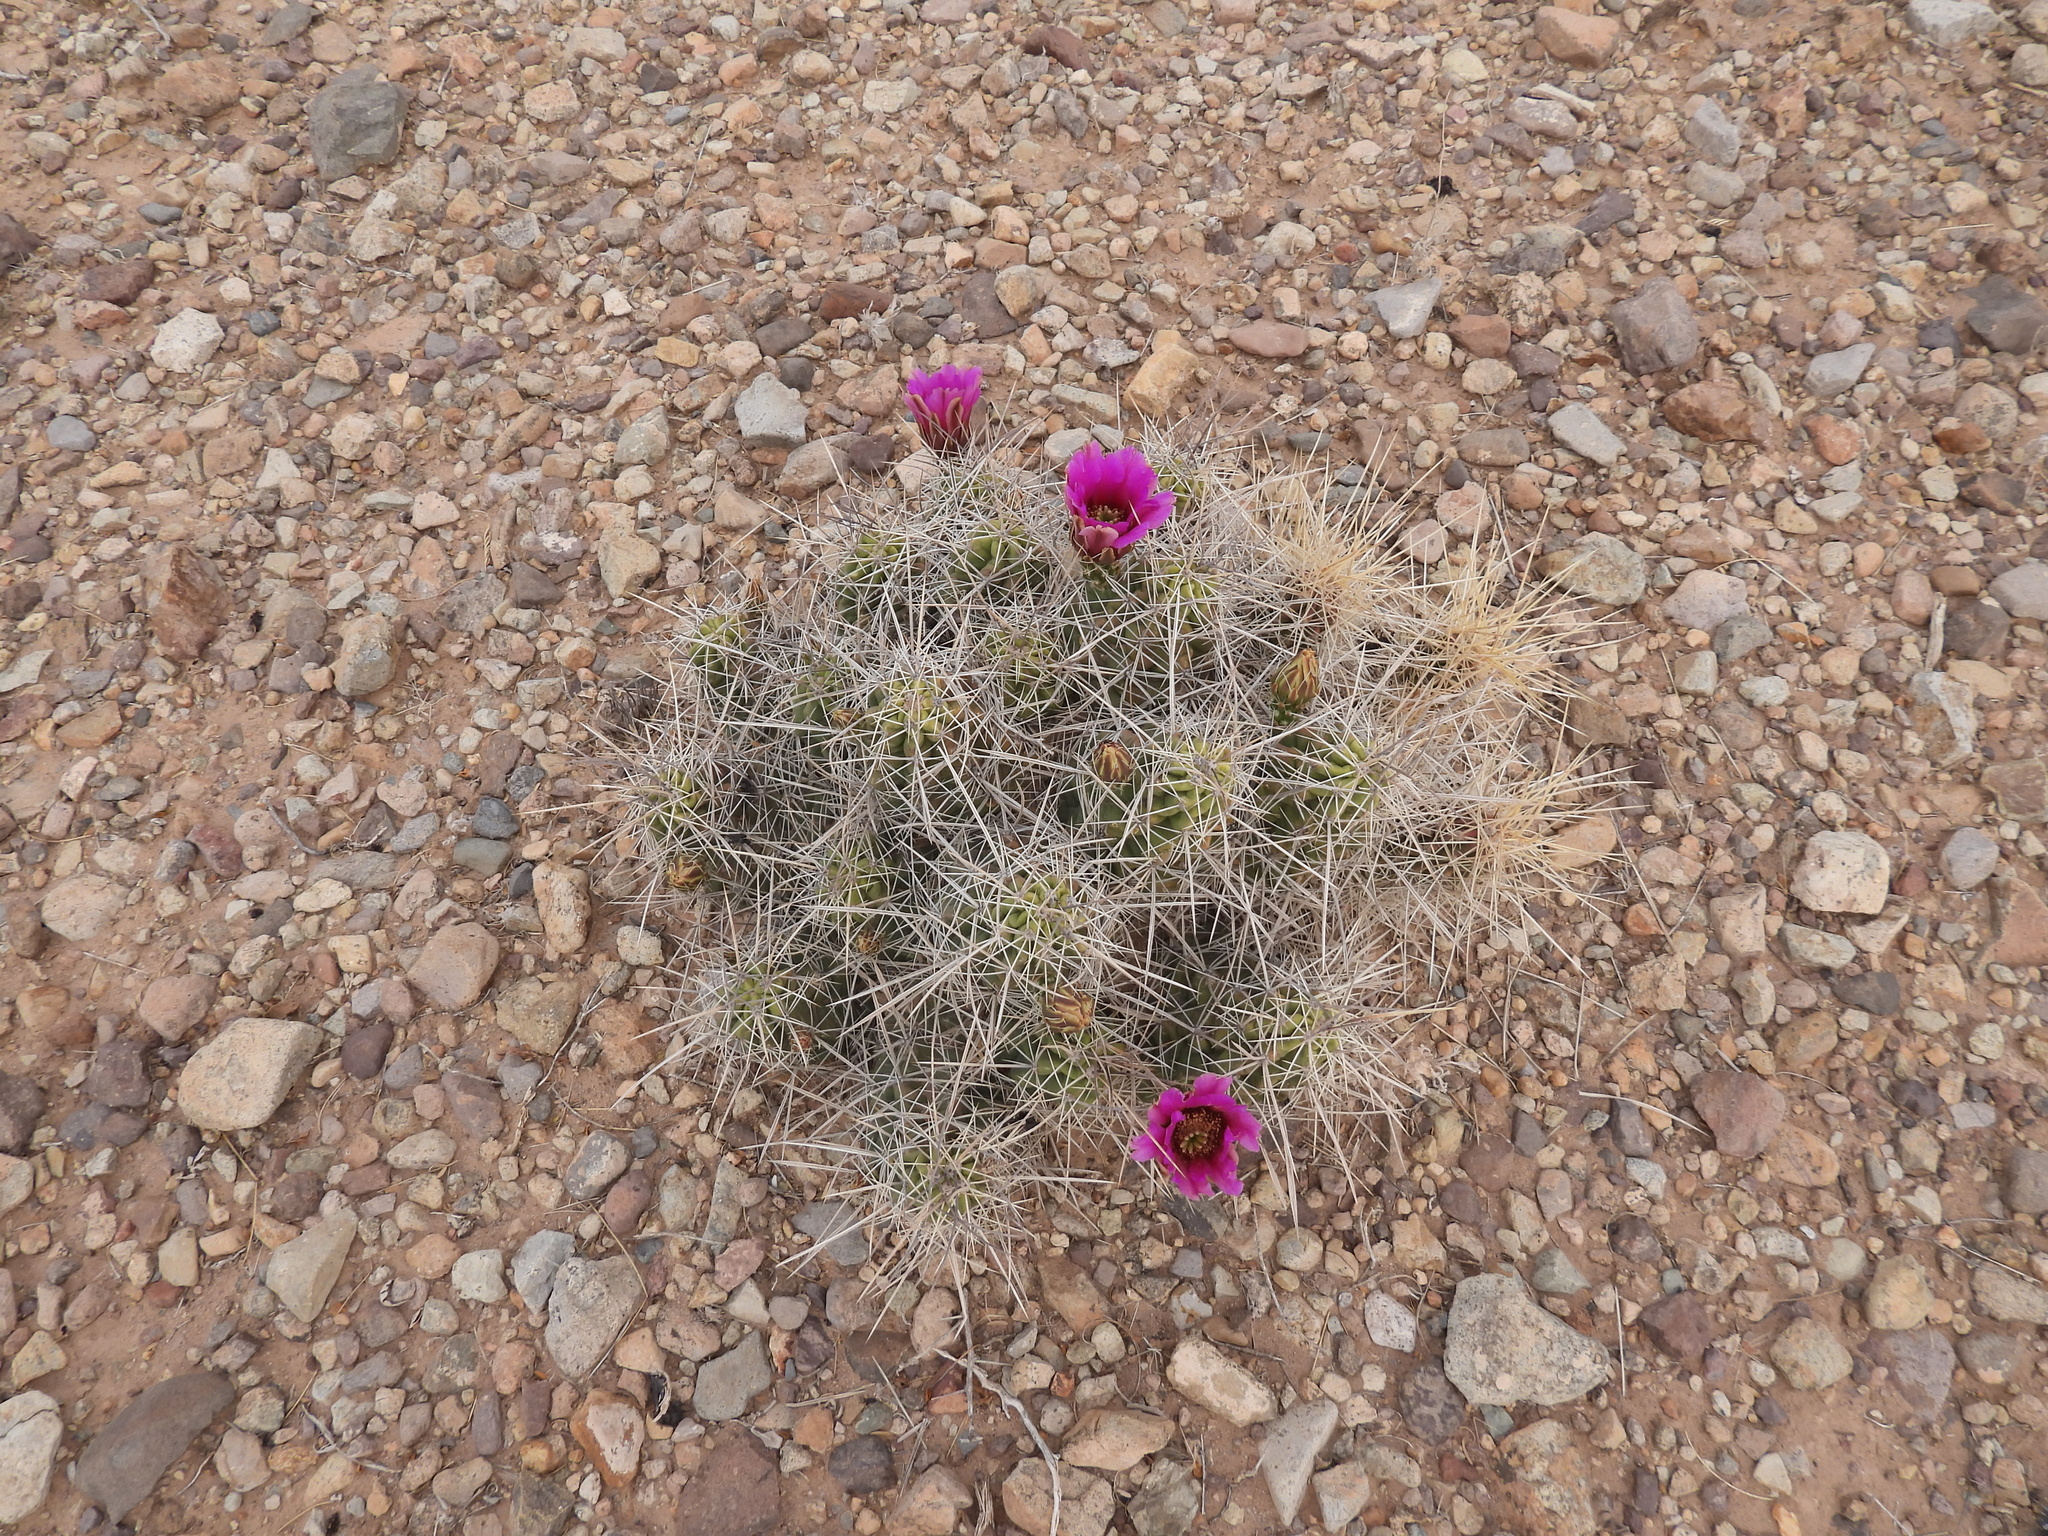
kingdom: Plantae
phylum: Tracheophyta
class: Magnoliopsida
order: Caryophyllales
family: Cactaceae
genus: Echinocereus
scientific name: Echinocereus enneacanthus
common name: Pitaya
